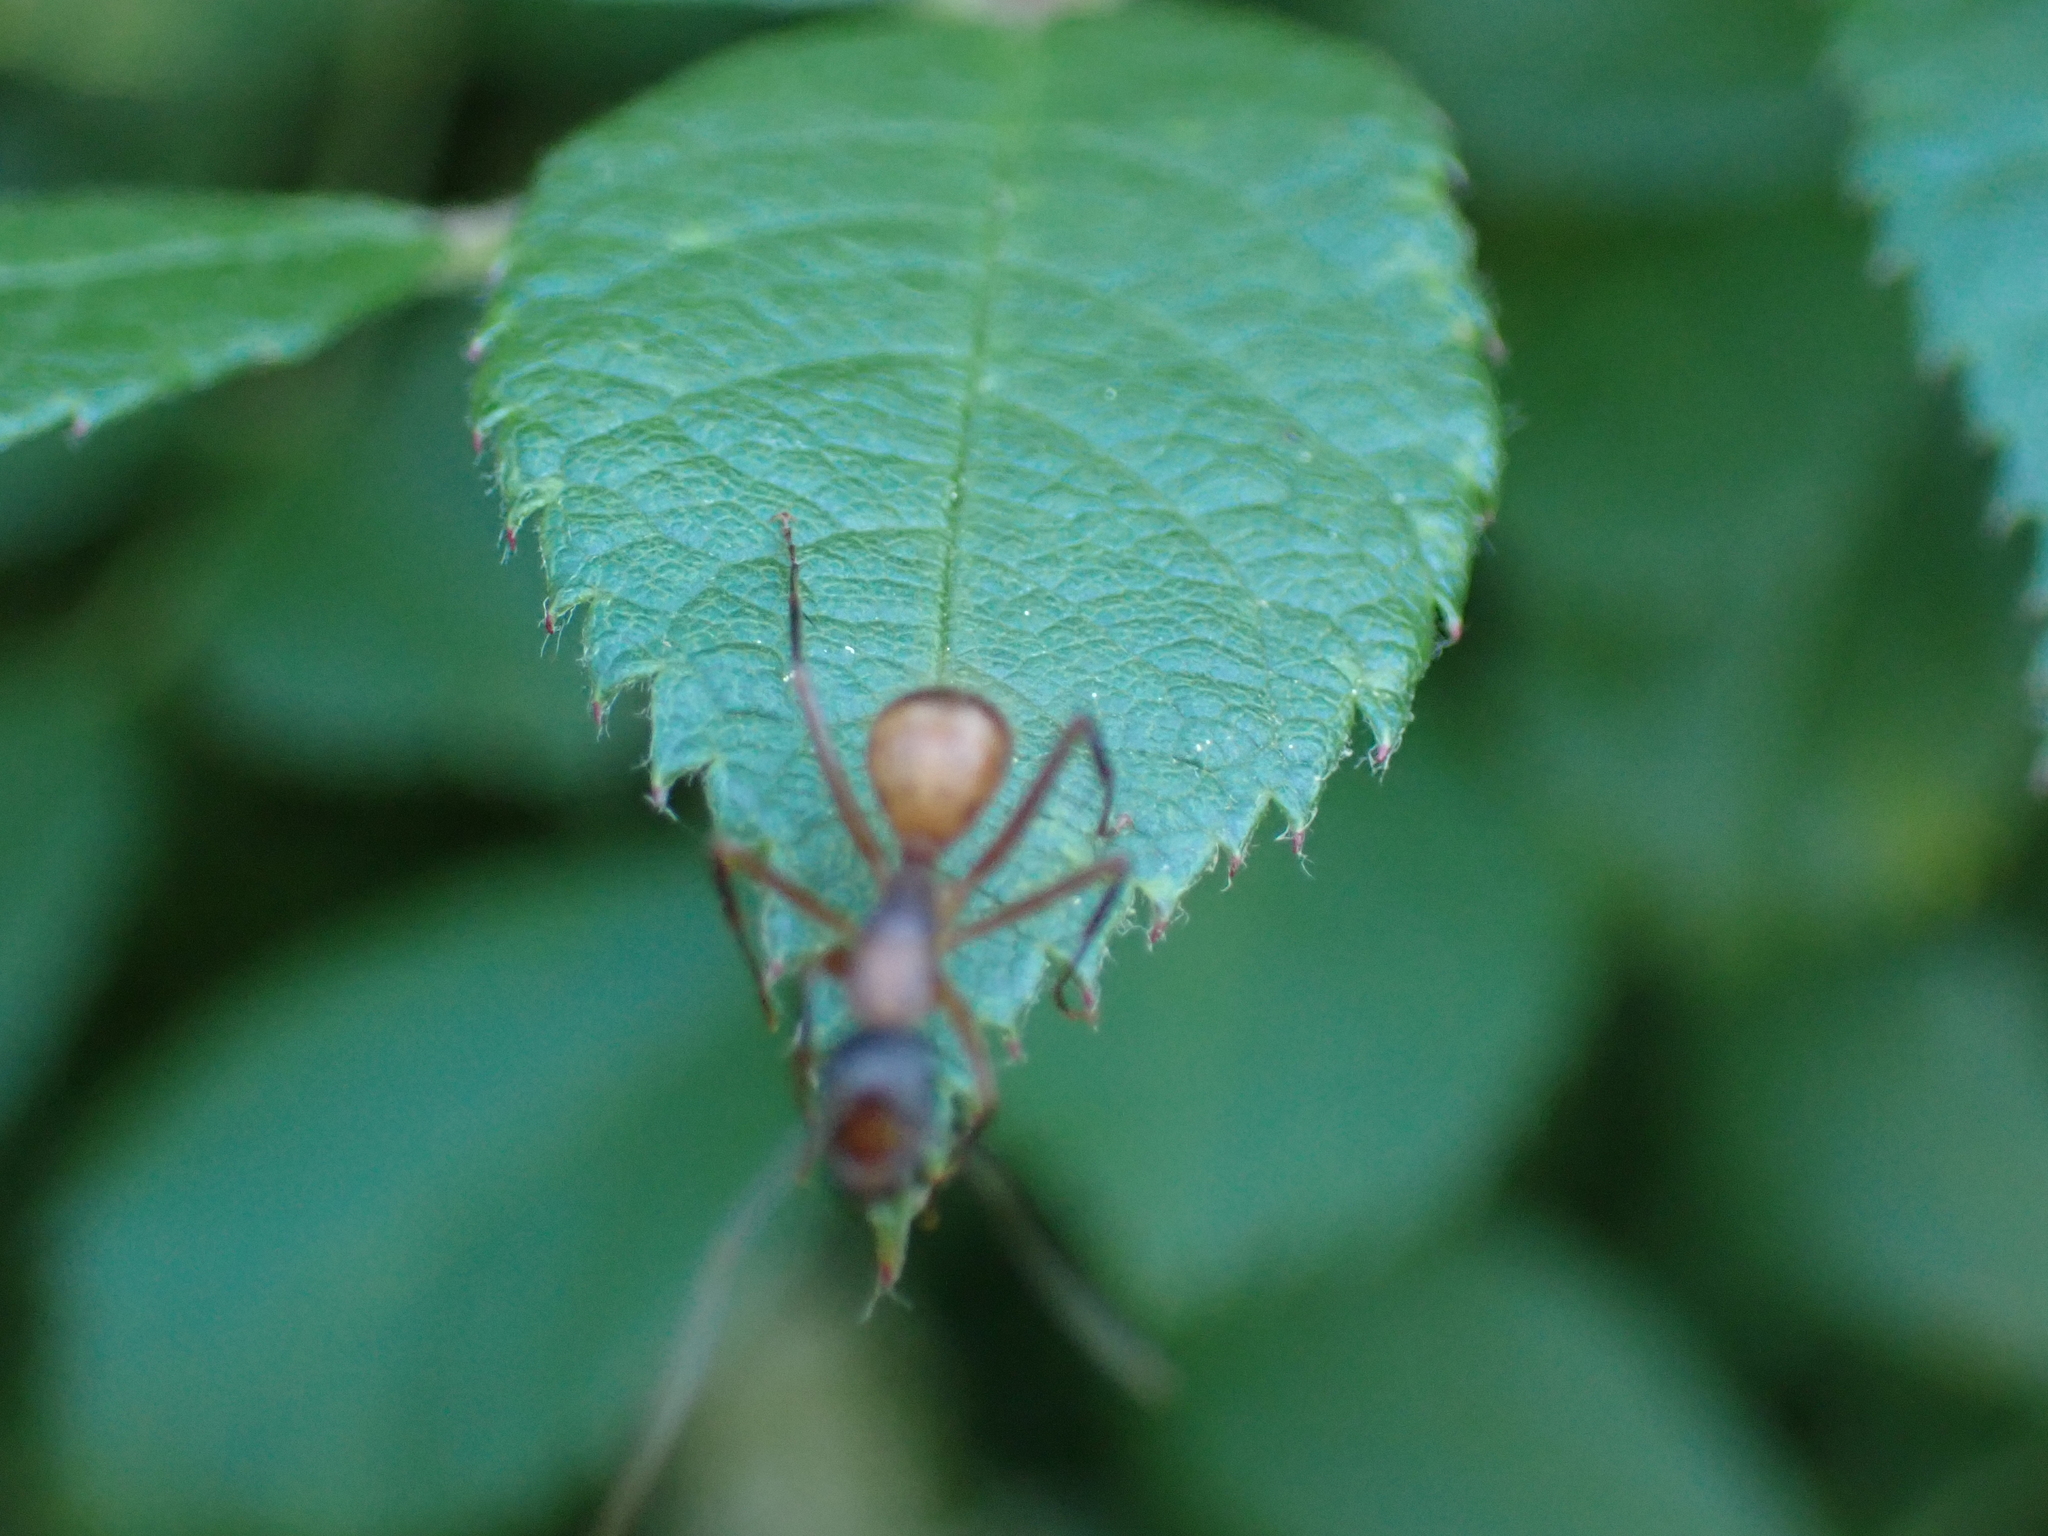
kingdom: Animalia
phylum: Arthropoda
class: Insecta
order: Hymenoptera
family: Formicidae
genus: Camponotus
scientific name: Camponotus americanus
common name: American carpenter ant
